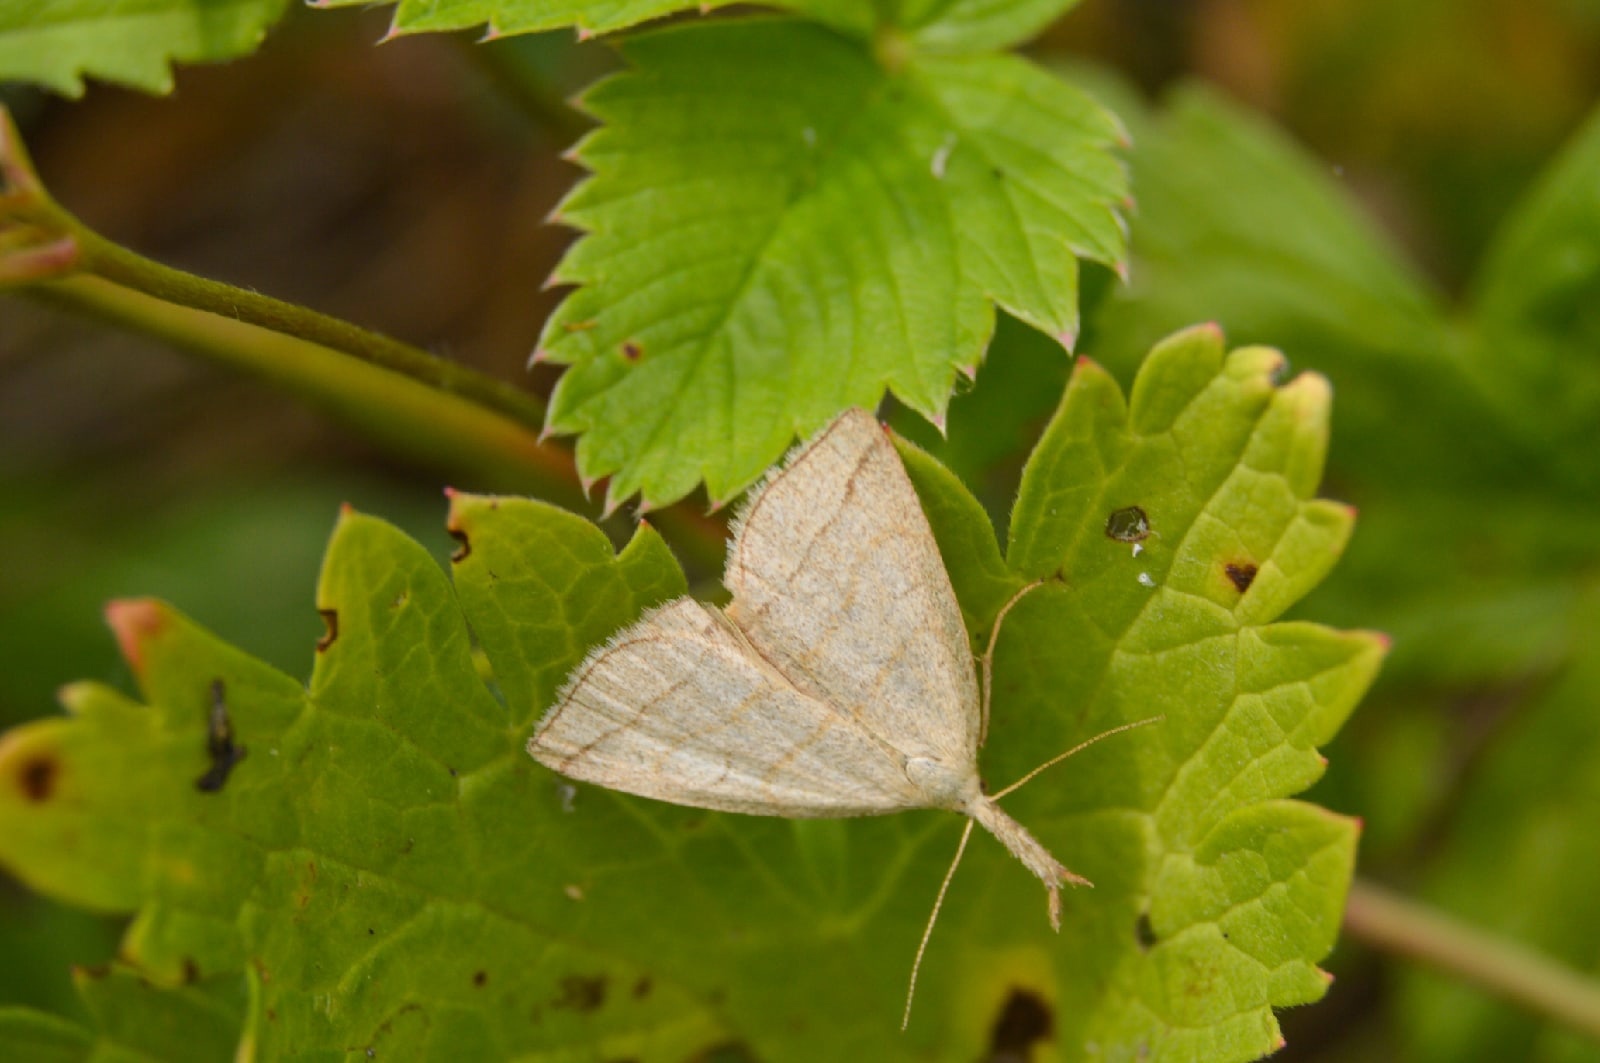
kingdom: Animalia
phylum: Arthropoda
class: Insecta
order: Lepidoptera
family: Erebidae
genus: Polypogon
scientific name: Polypogon tentacularia
